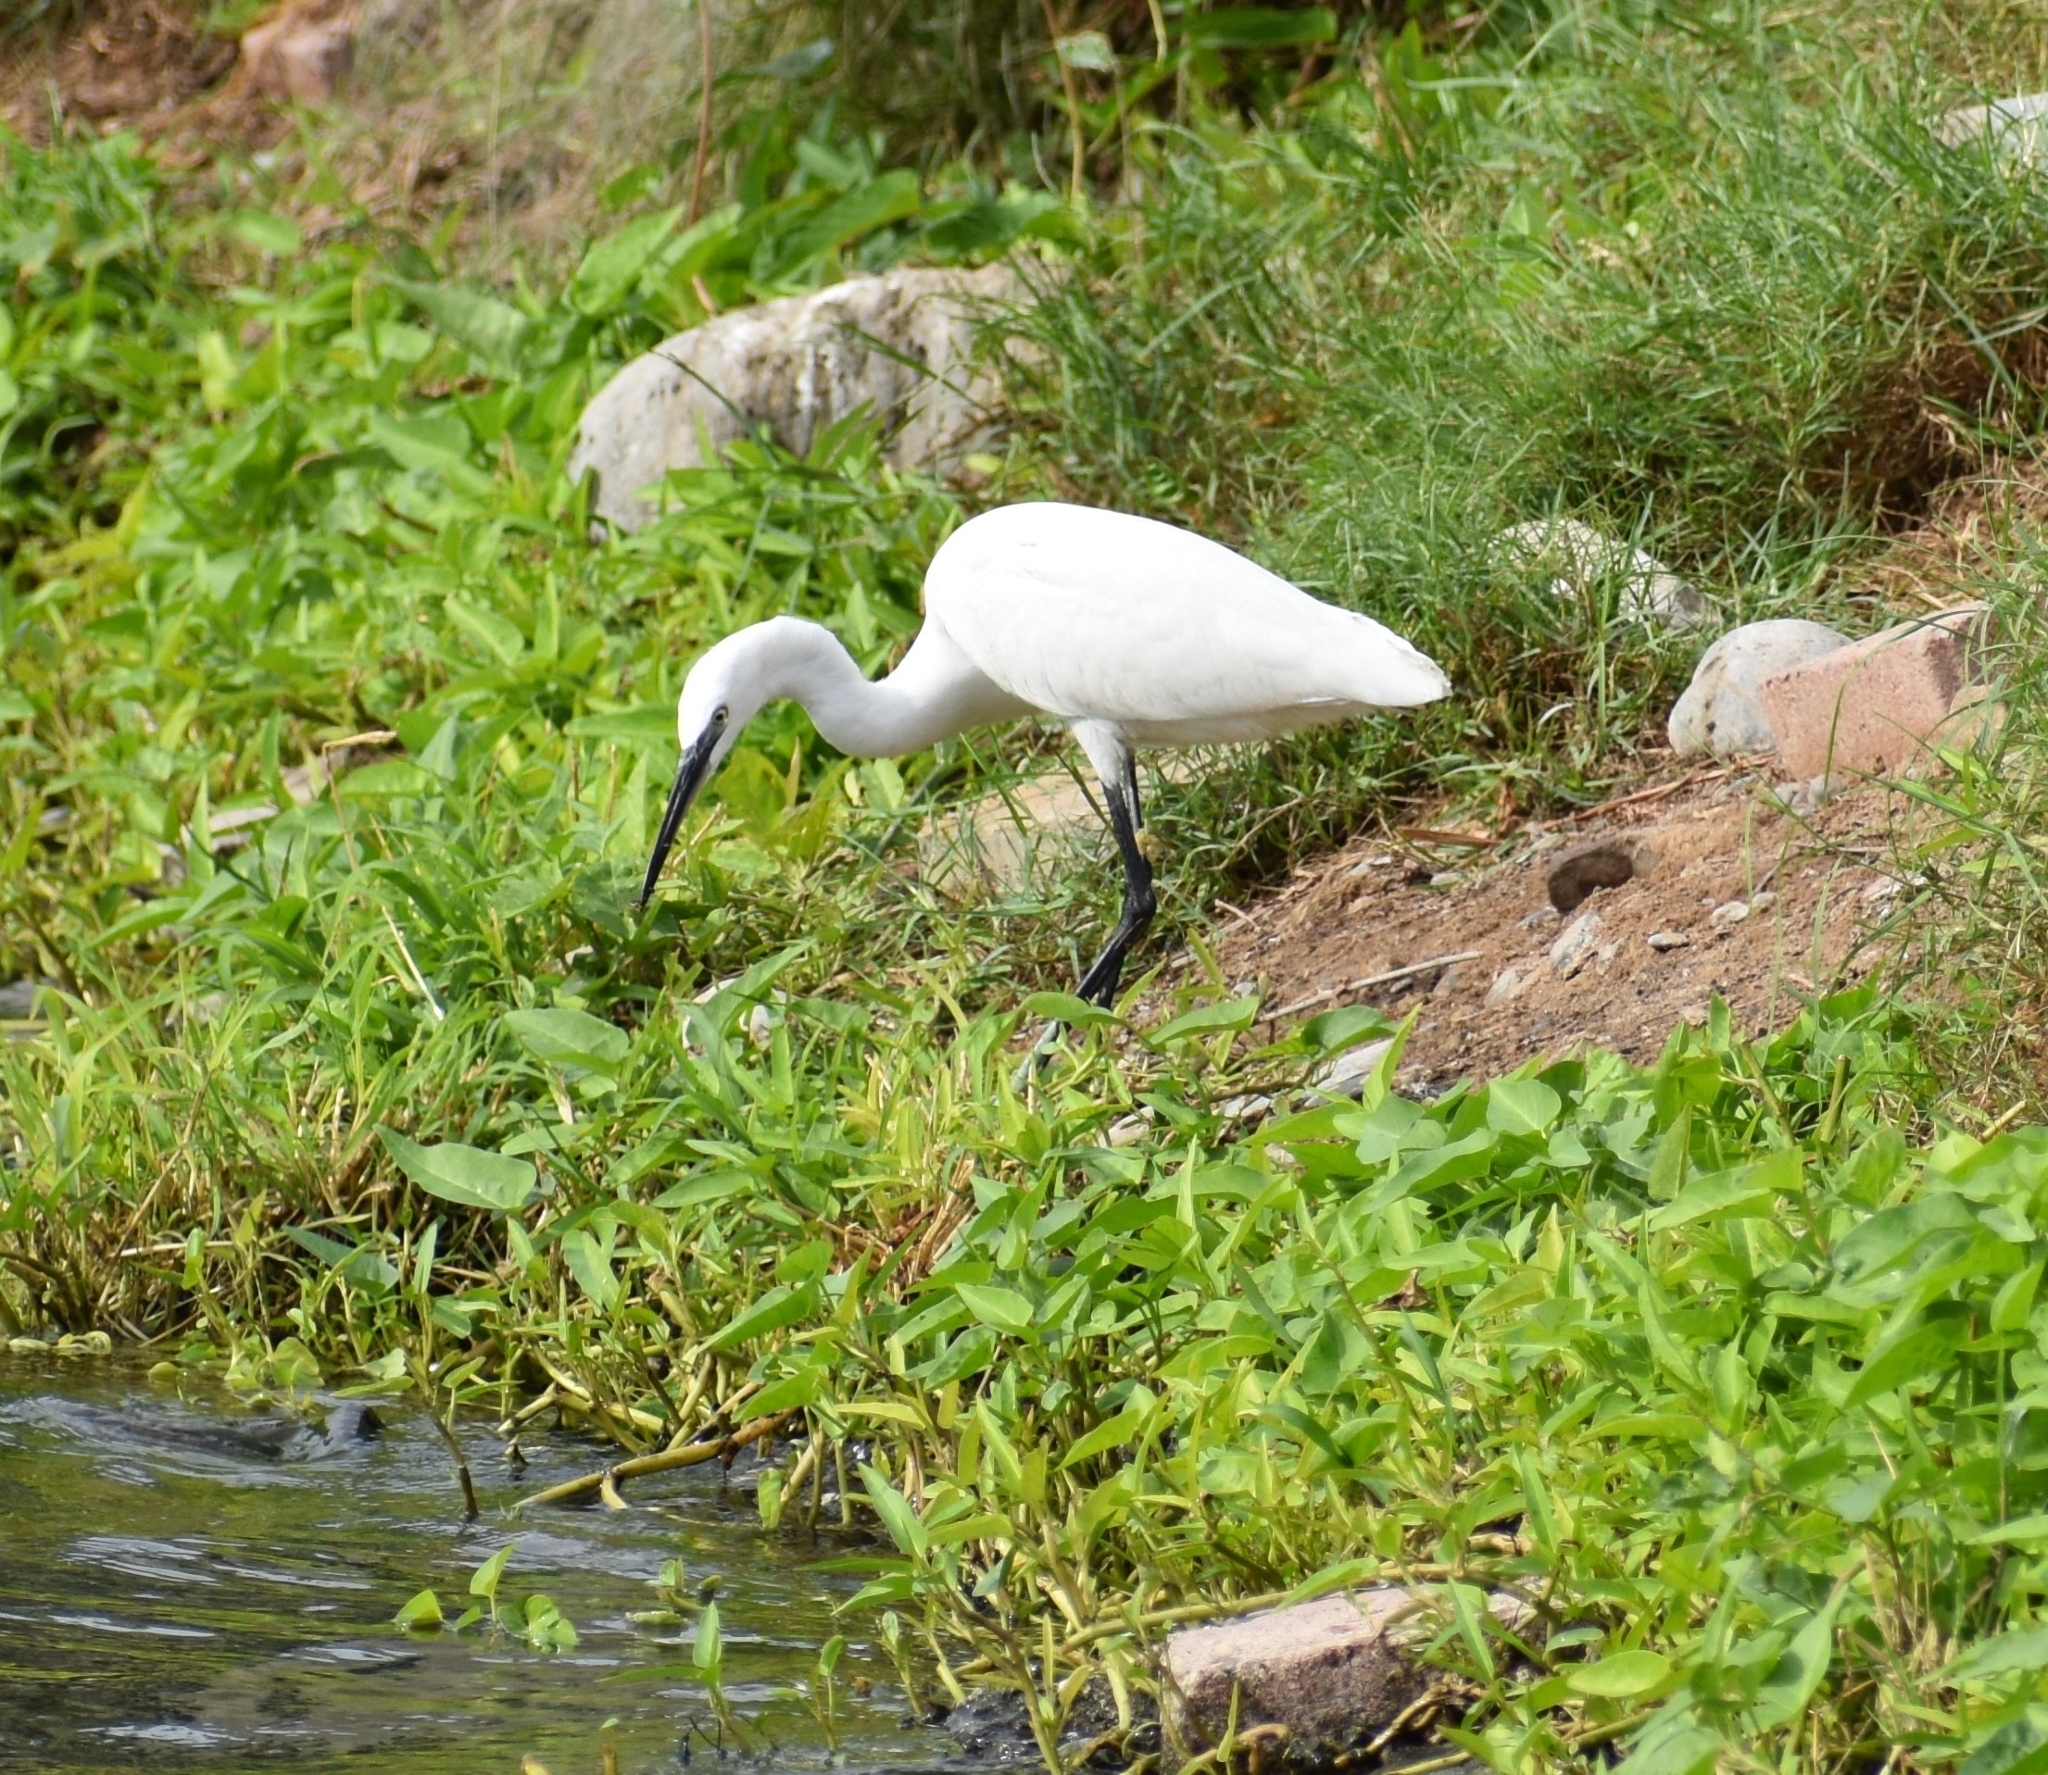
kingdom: Animalia
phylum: Chordata
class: Aves
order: Pelecaniformes
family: Ardeidae
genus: Egretta
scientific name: Egretta garzetta
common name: Little egret
